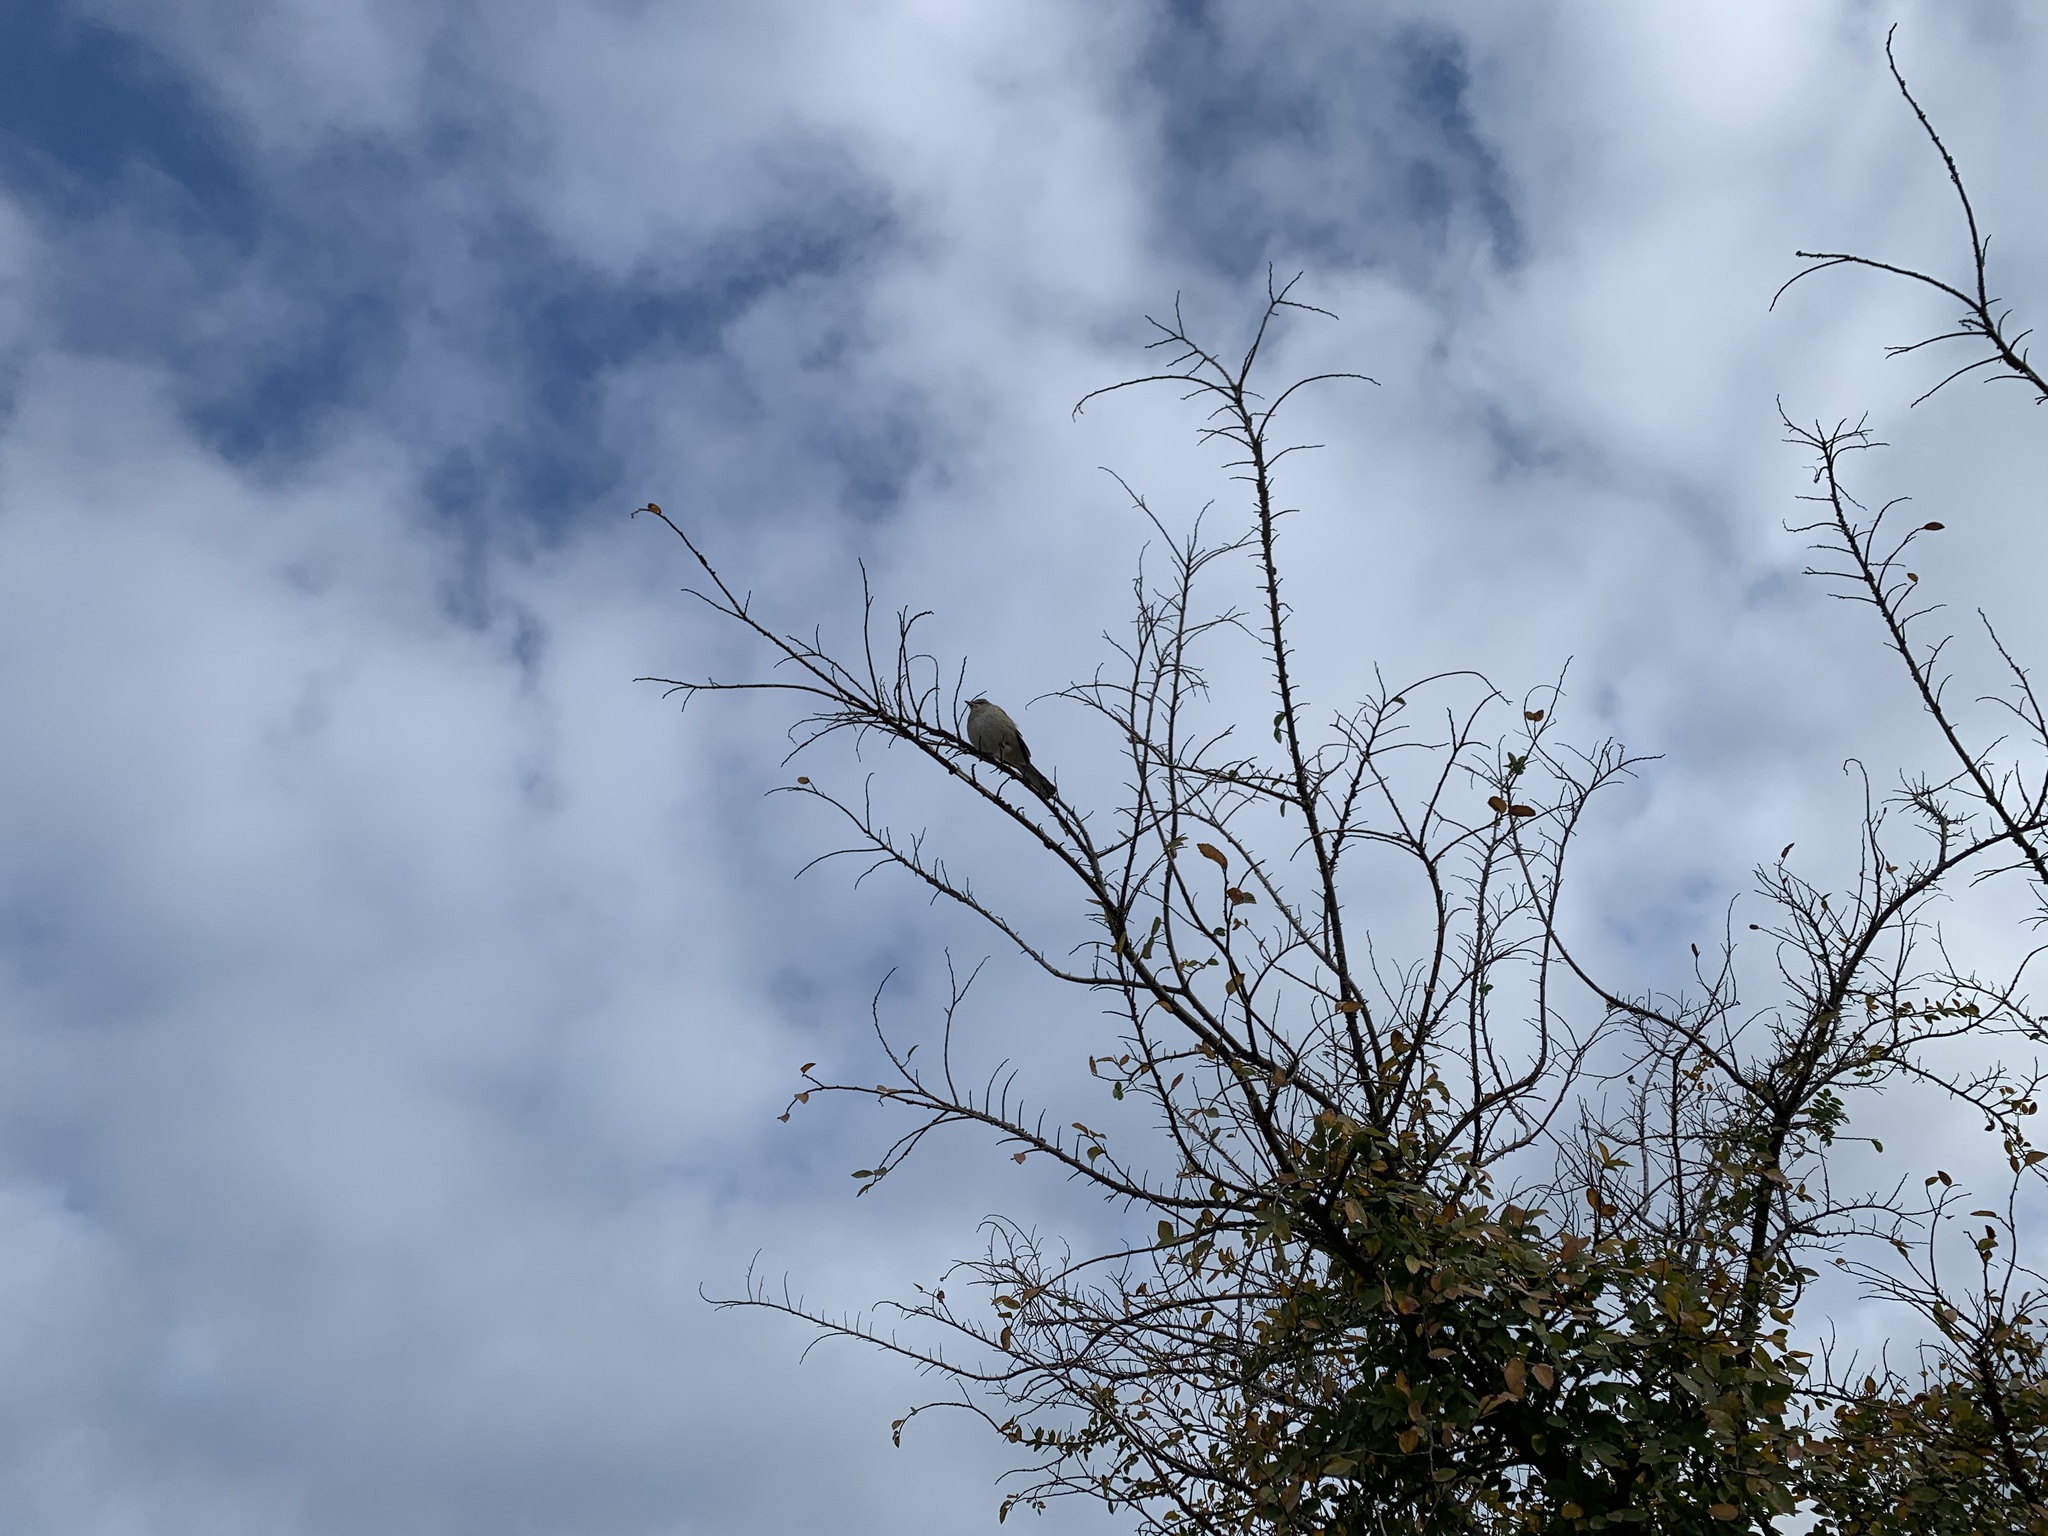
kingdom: Animalia
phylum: Chordata
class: Aves
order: Passeriformes
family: Mimidae
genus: Mimus
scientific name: Mimus polyglottos
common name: Northern mockingbird
